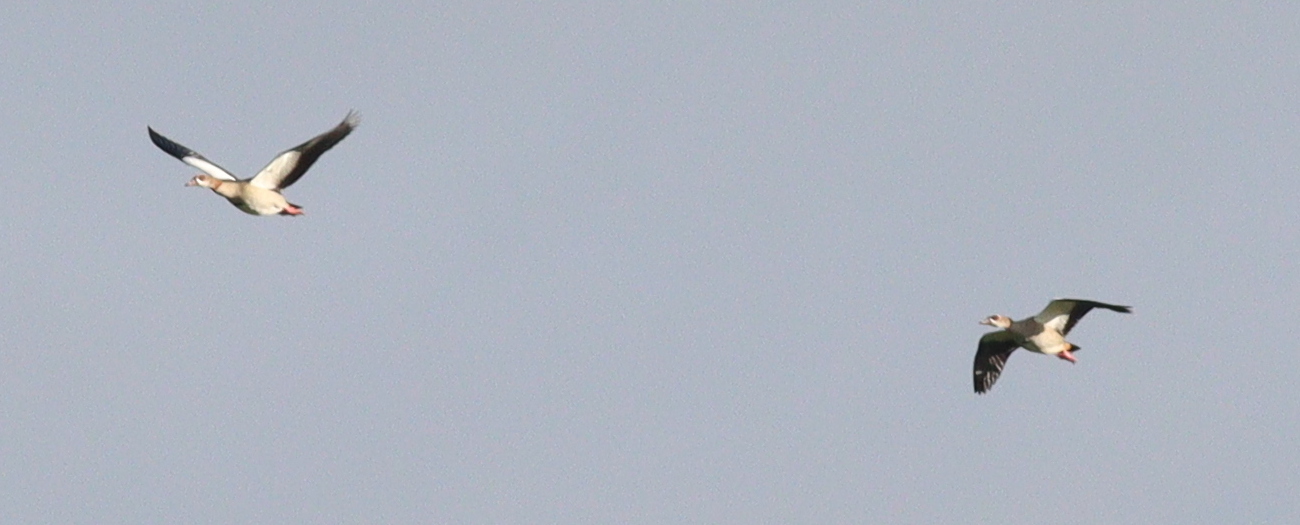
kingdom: Animalia
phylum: Chordata
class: Aves
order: Anseriformes
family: Anatidae
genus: Alopochen
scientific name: Alopochen aegyptiaca
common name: Egyptian goose
